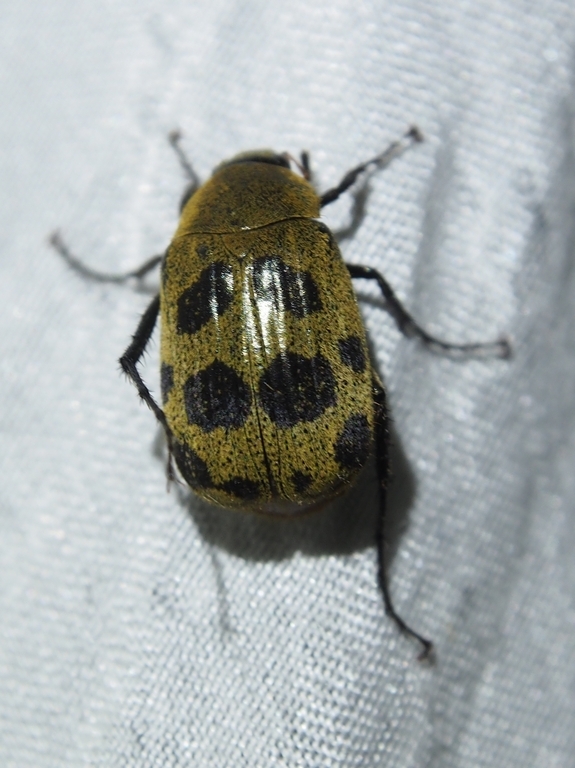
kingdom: Animalia
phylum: Arthropoda
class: Insecta
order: Coleoptera
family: Scarabaeidae
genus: Isonychus
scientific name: Isonychus pictus
